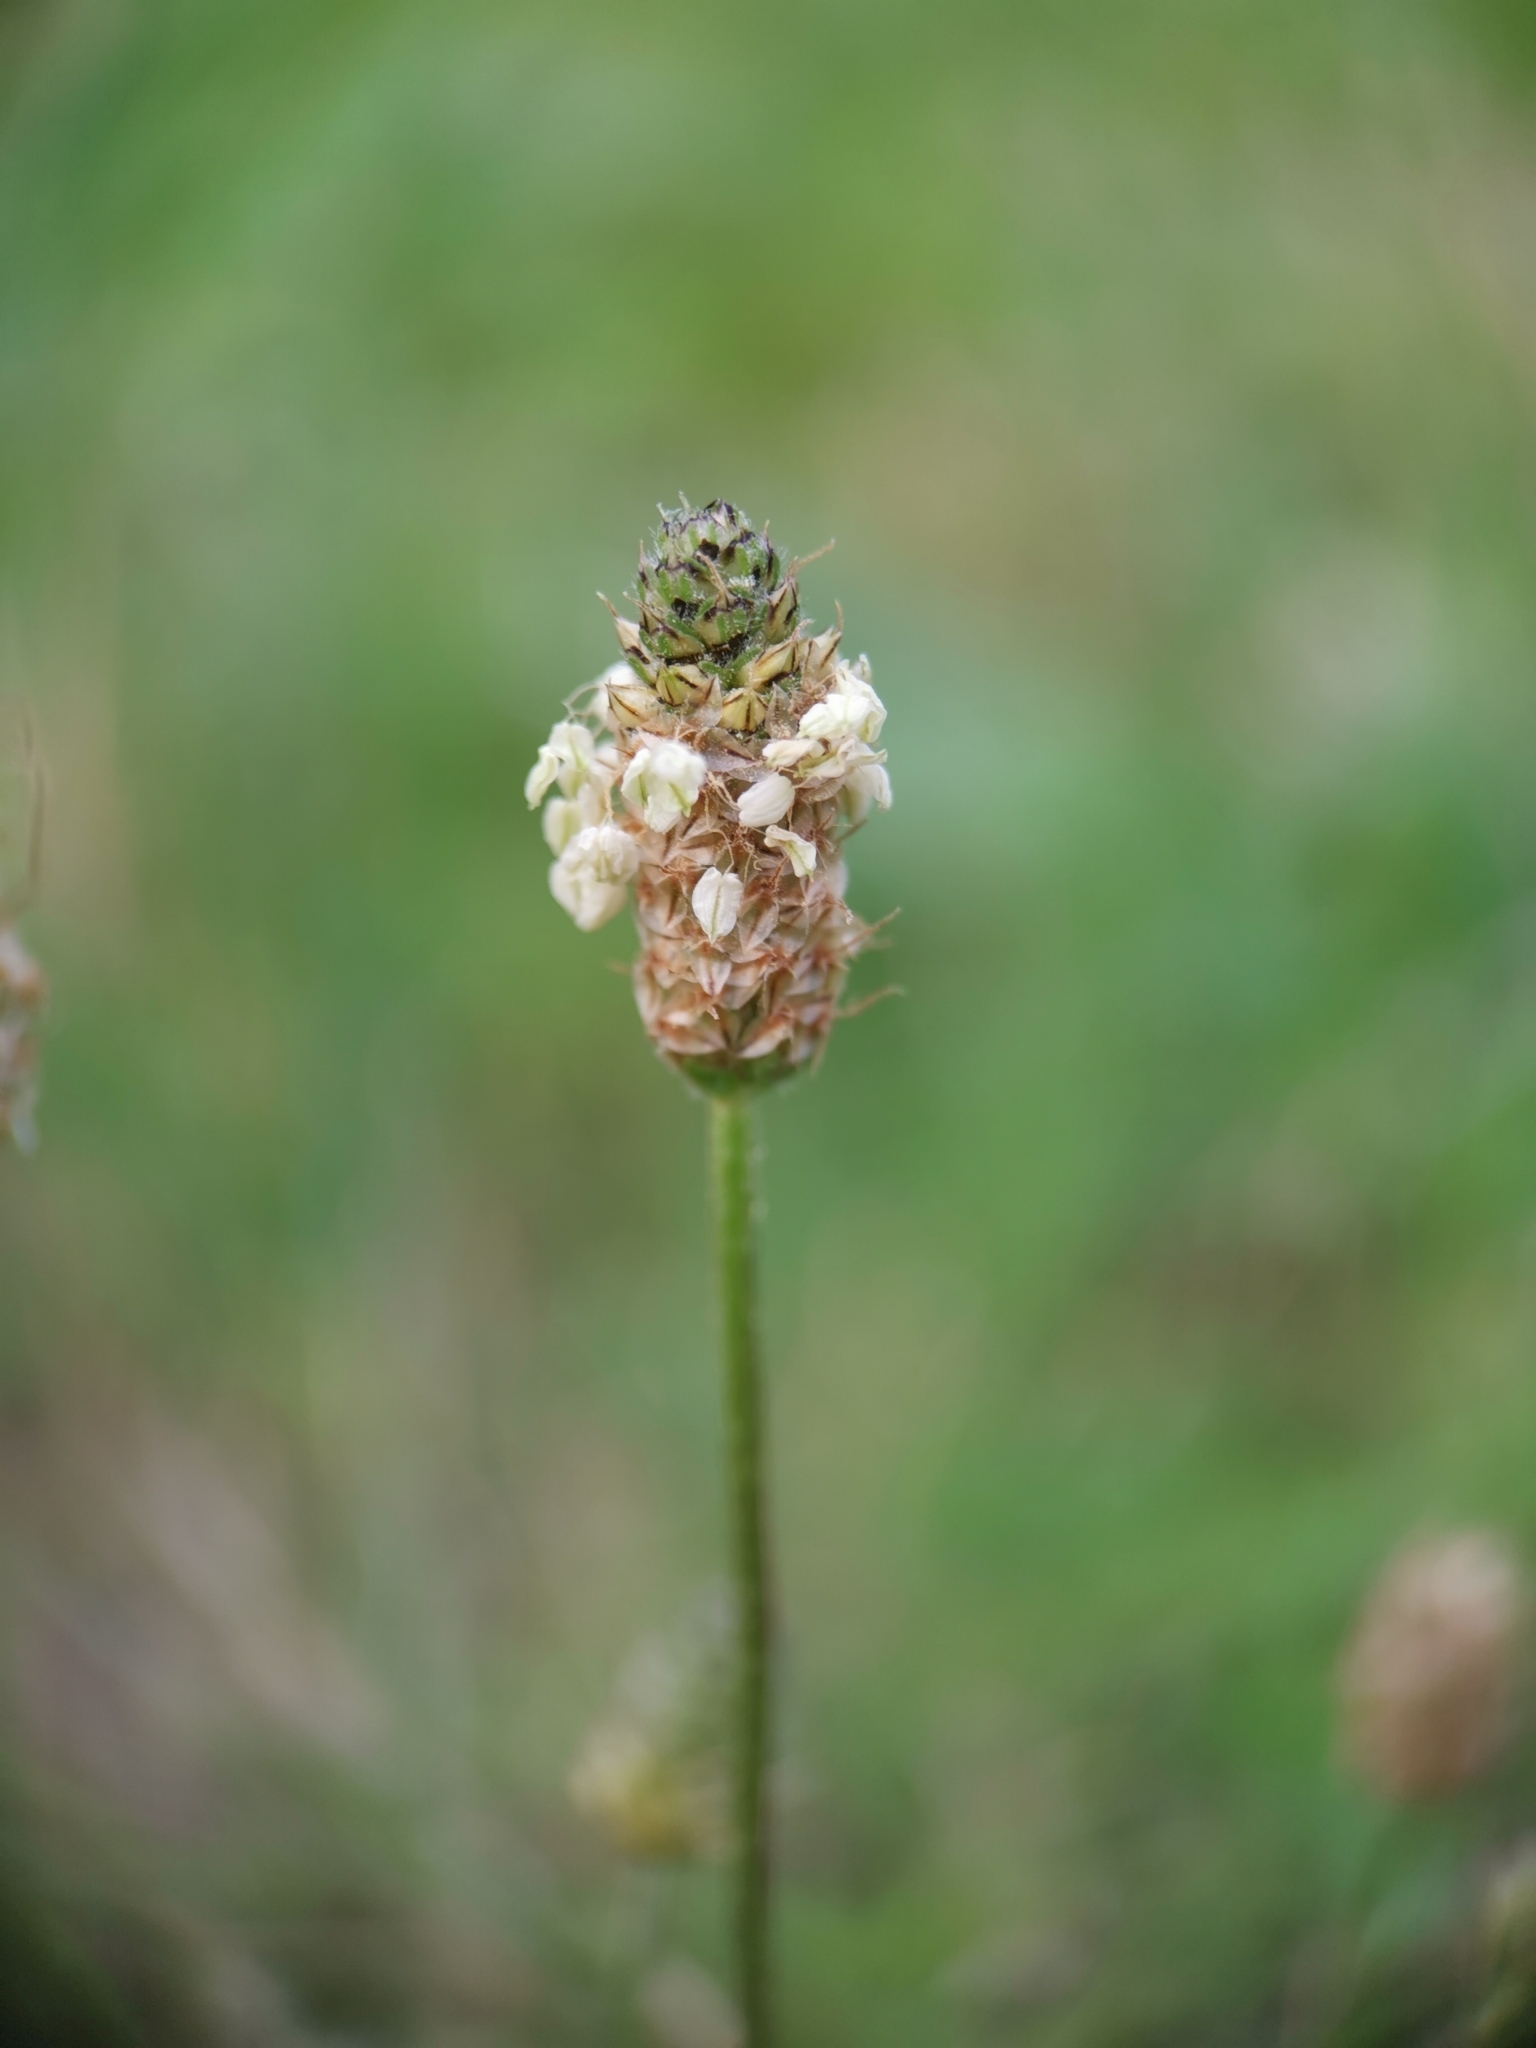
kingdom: Plantae
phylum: Tracheophyta
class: Magnoliopsida
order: Lamiales
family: Plantaginaceae
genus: Plantago
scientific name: Plantago lanceolata
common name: Ribwort plantain
